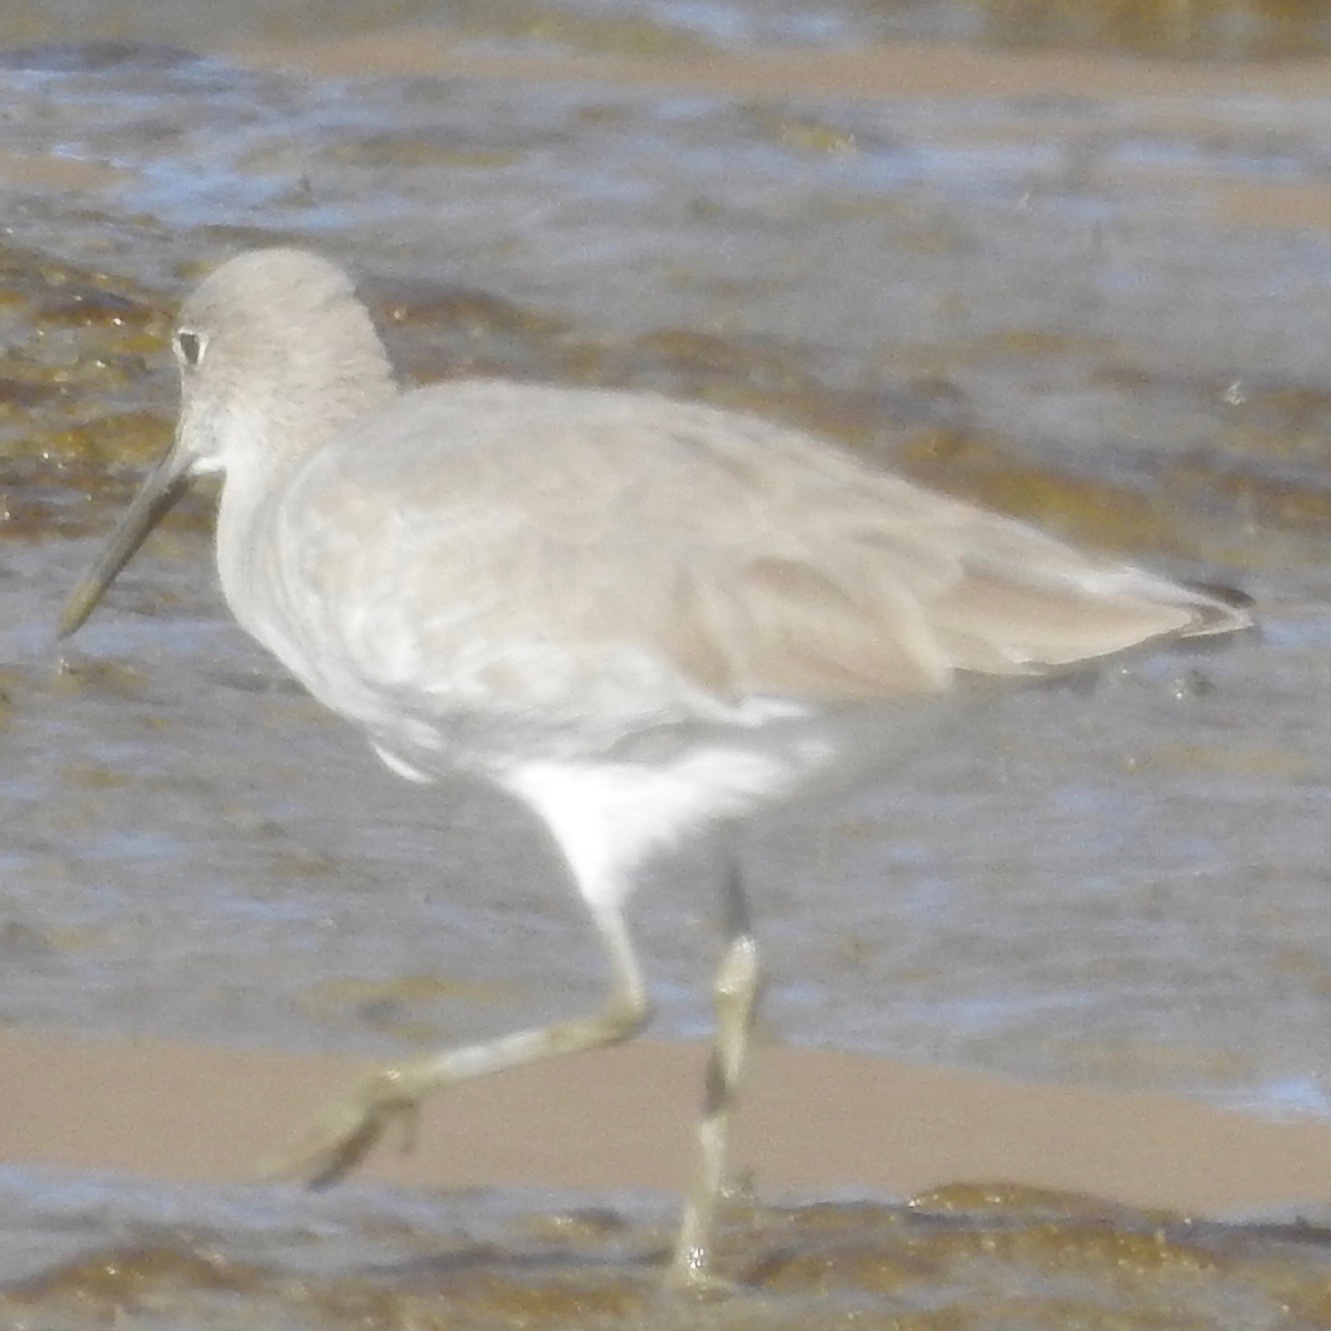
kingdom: Animalia
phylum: Chordata
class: Aves
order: Charadriiformes
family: Scolopacidae
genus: Tringa
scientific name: Tringa semipalmata
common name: Willet
